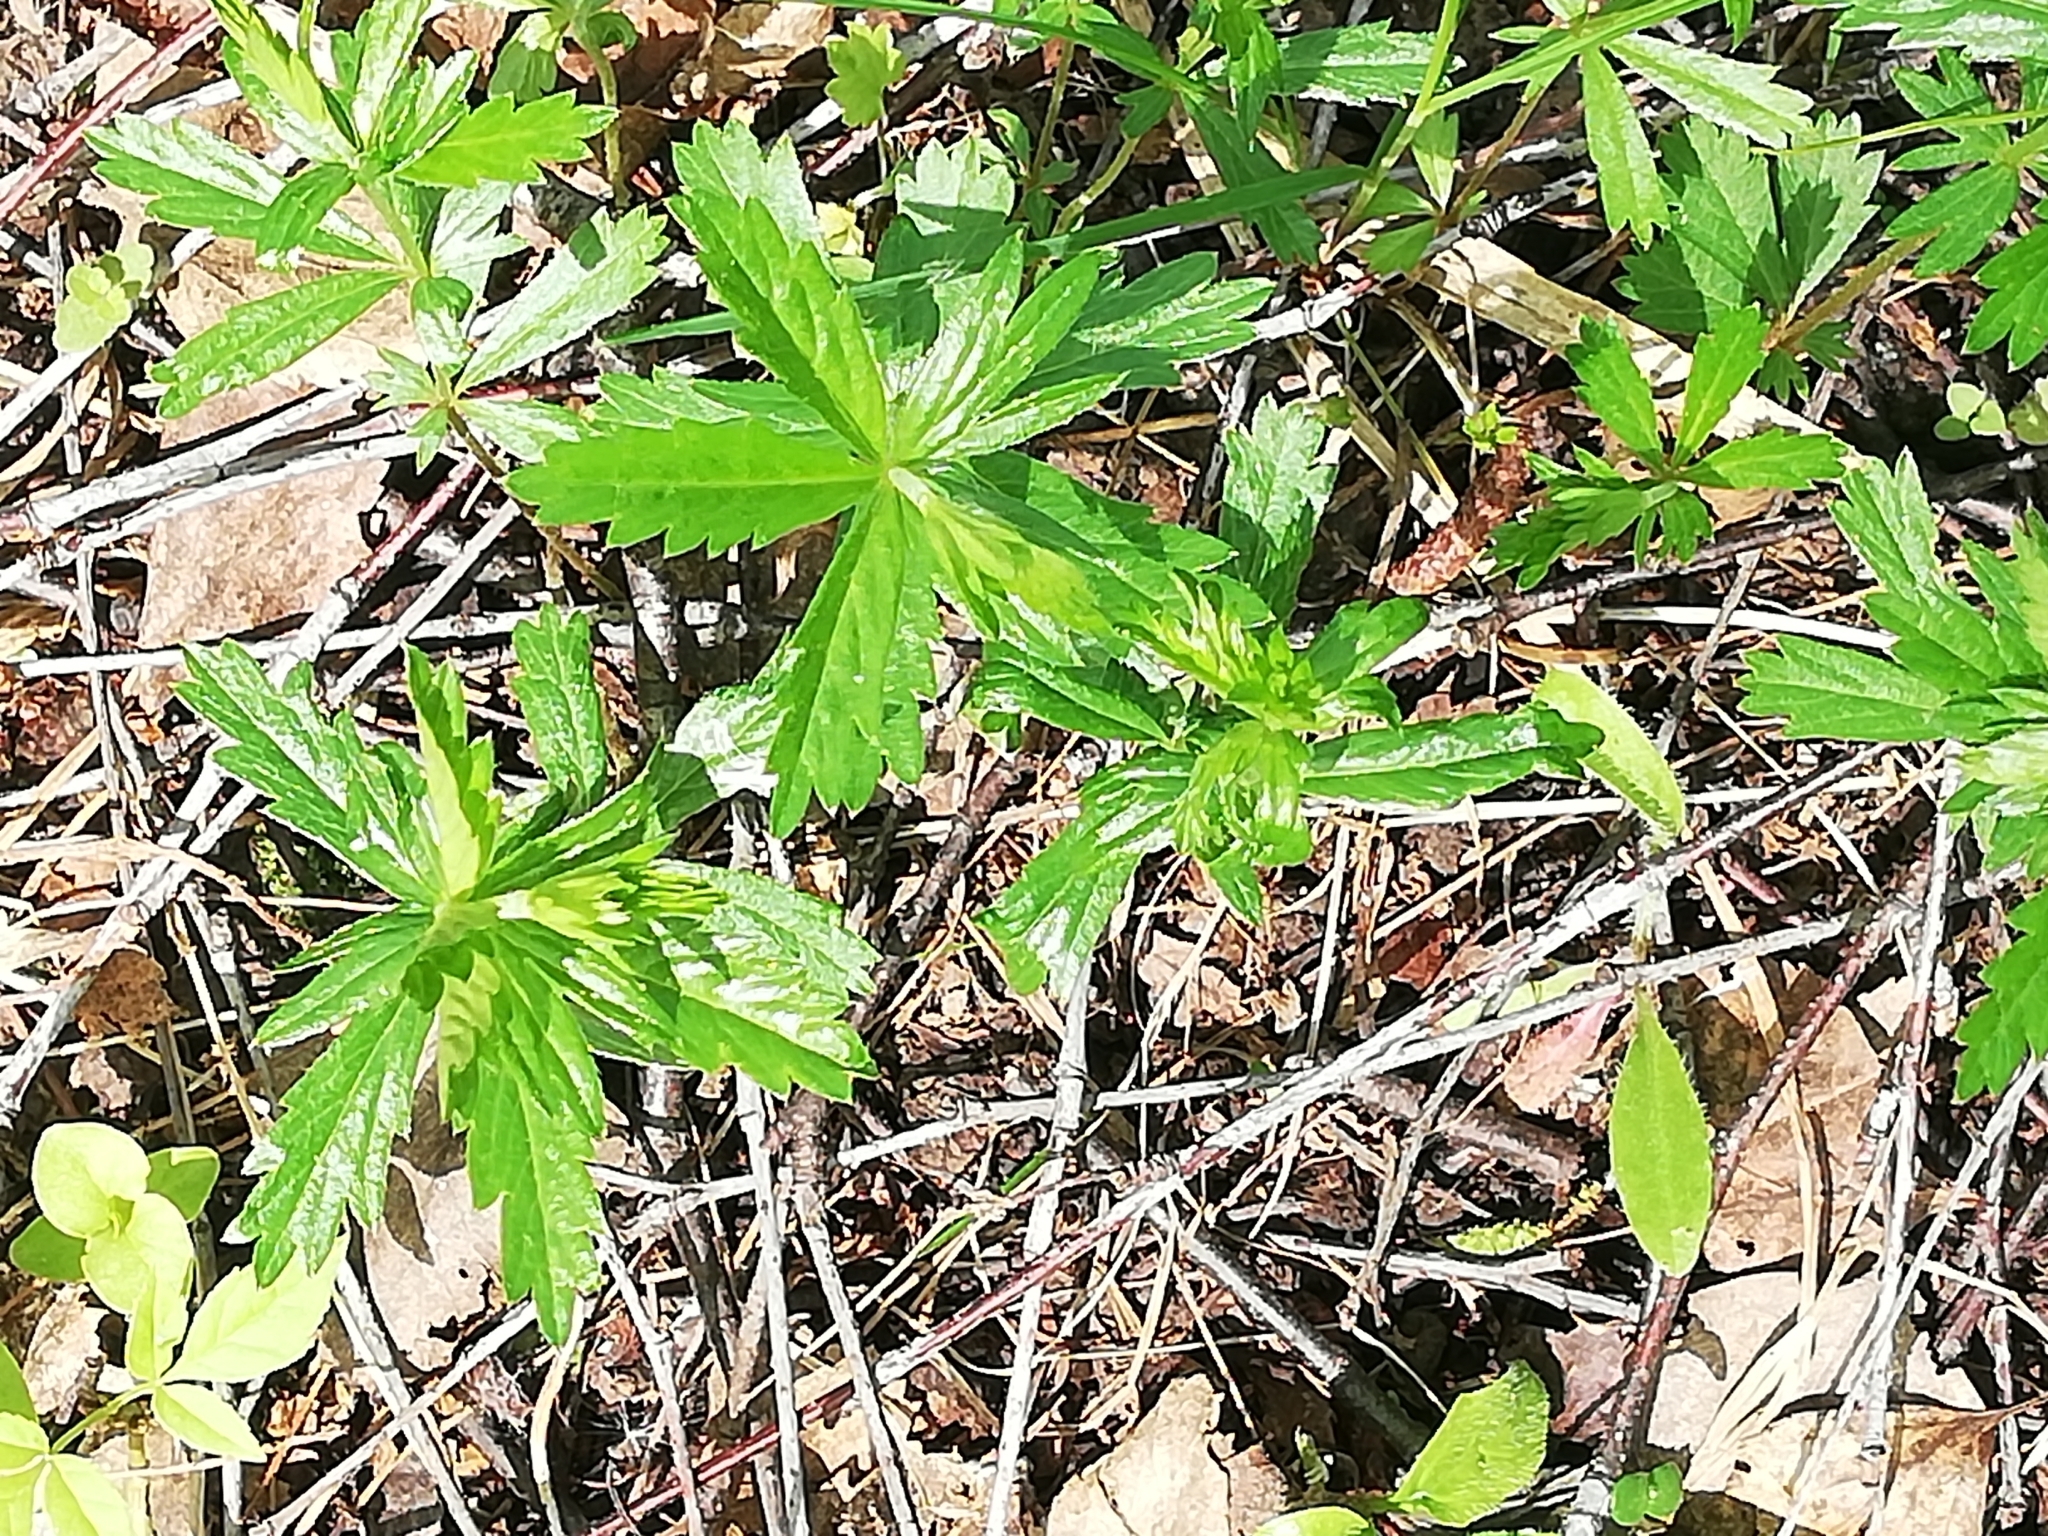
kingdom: Plantae
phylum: Tracheophyta
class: Magnoliopsida
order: Rosales
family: Rosaceae
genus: Potentilla
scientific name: Potentilla erecta
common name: Tormentil
